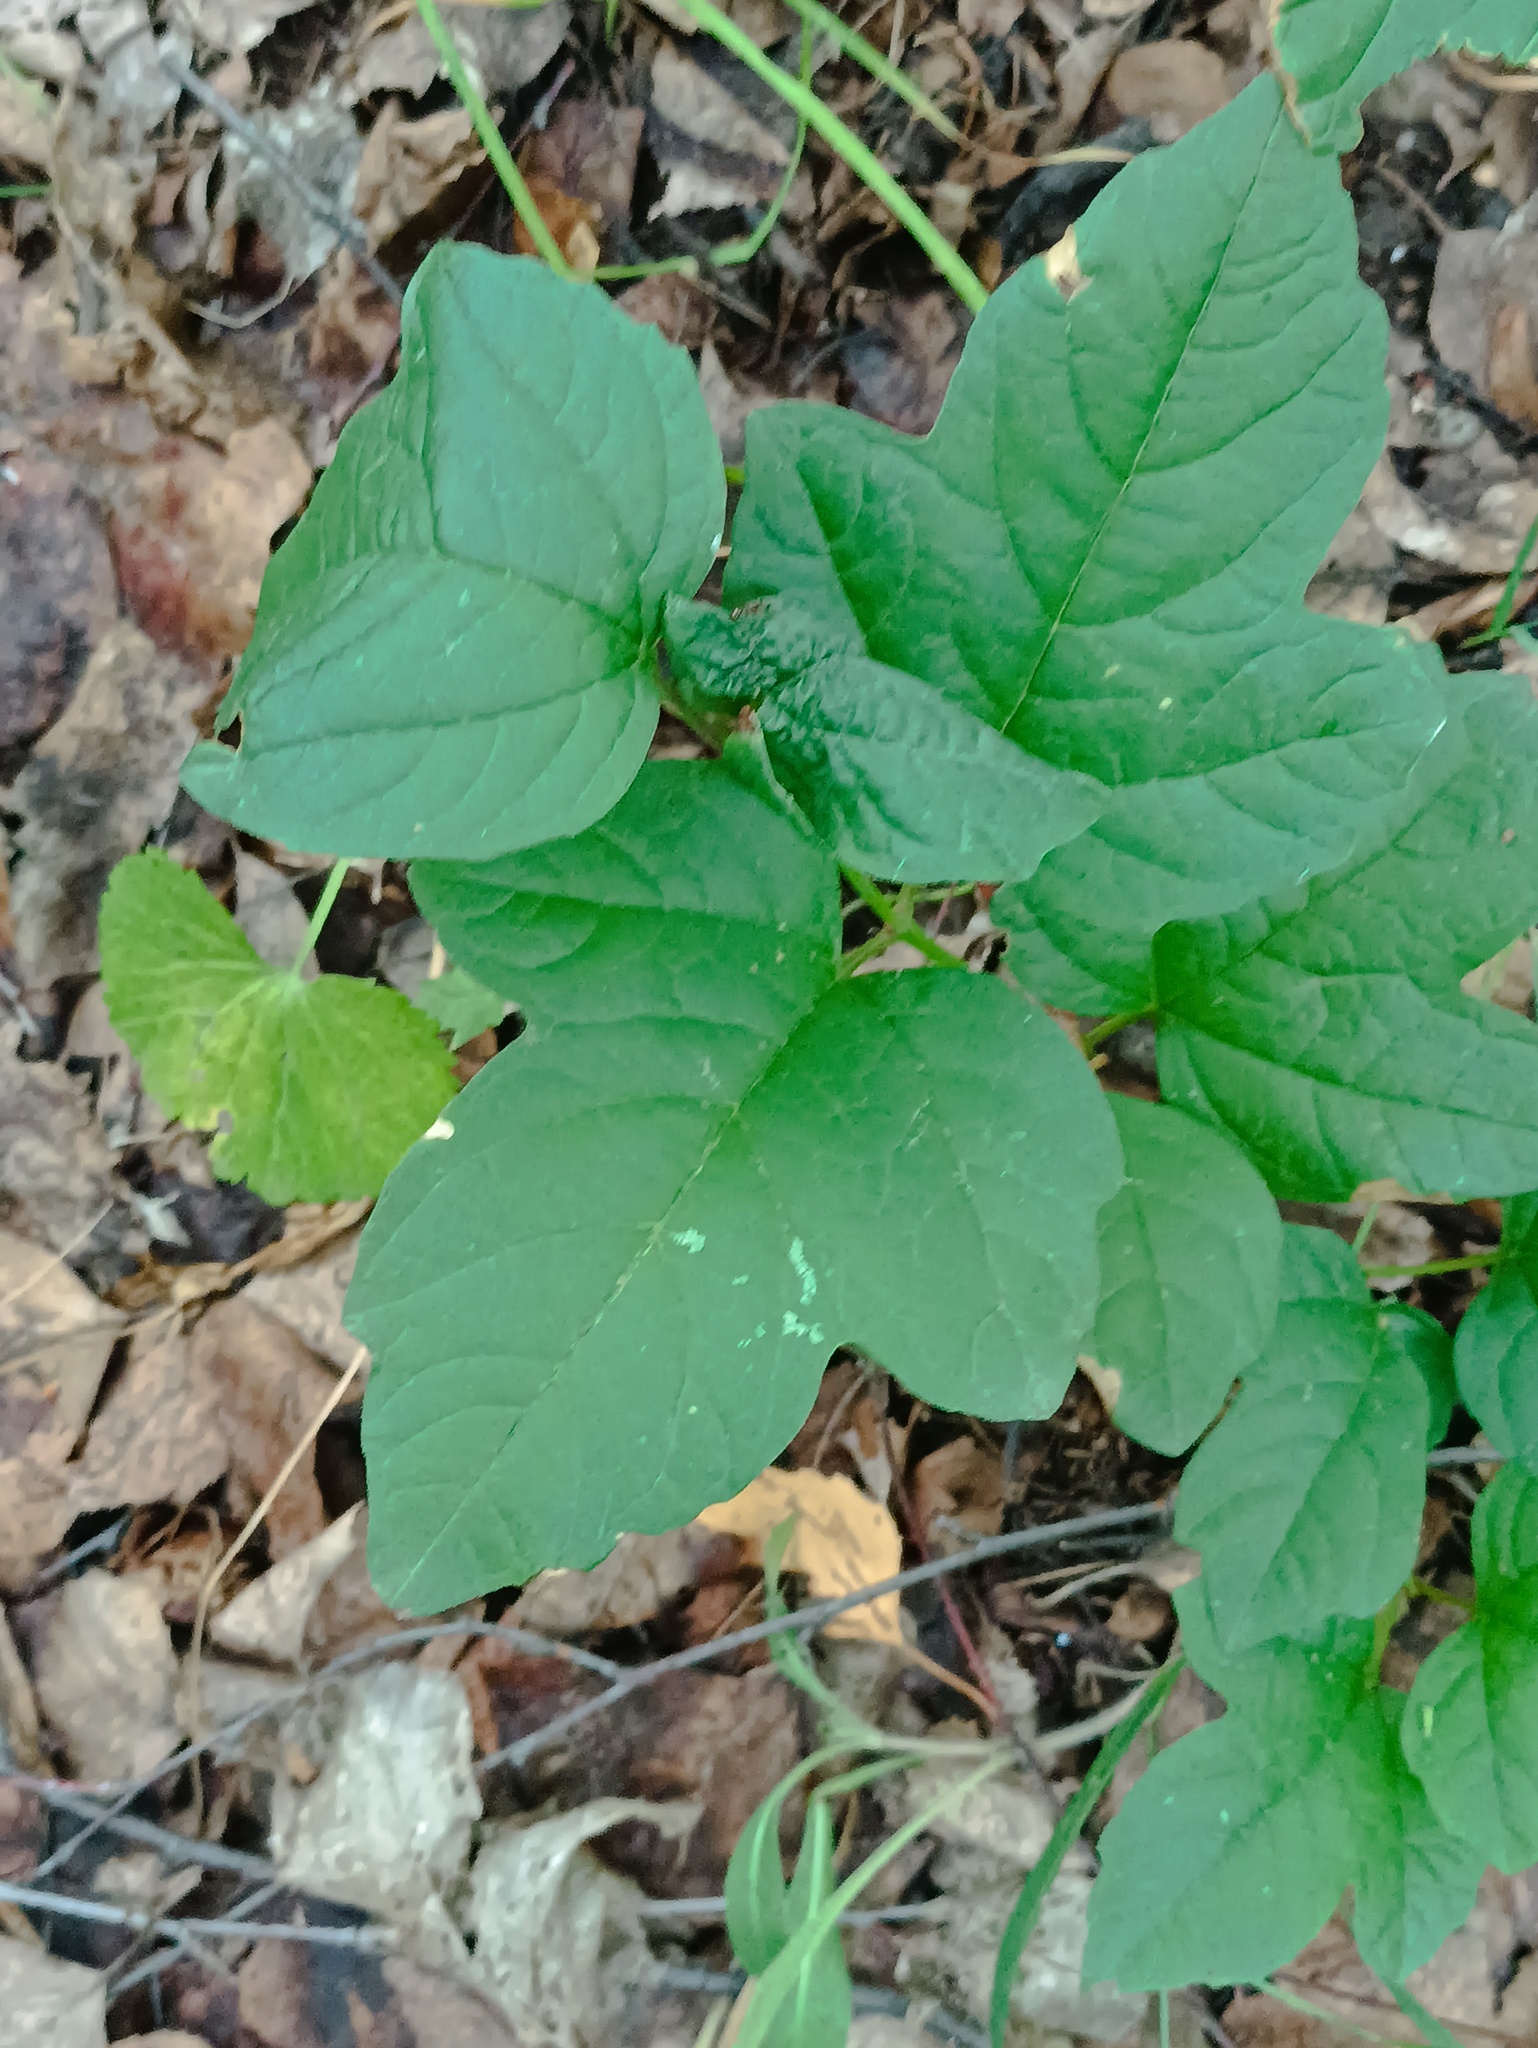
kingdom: Plantae
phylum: Tracheophyta
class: Magnoliopsida
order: Dipsacales
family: Viburnaceae
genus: Viburnum
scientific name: Viburnum opulus
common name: Guelder-rose
